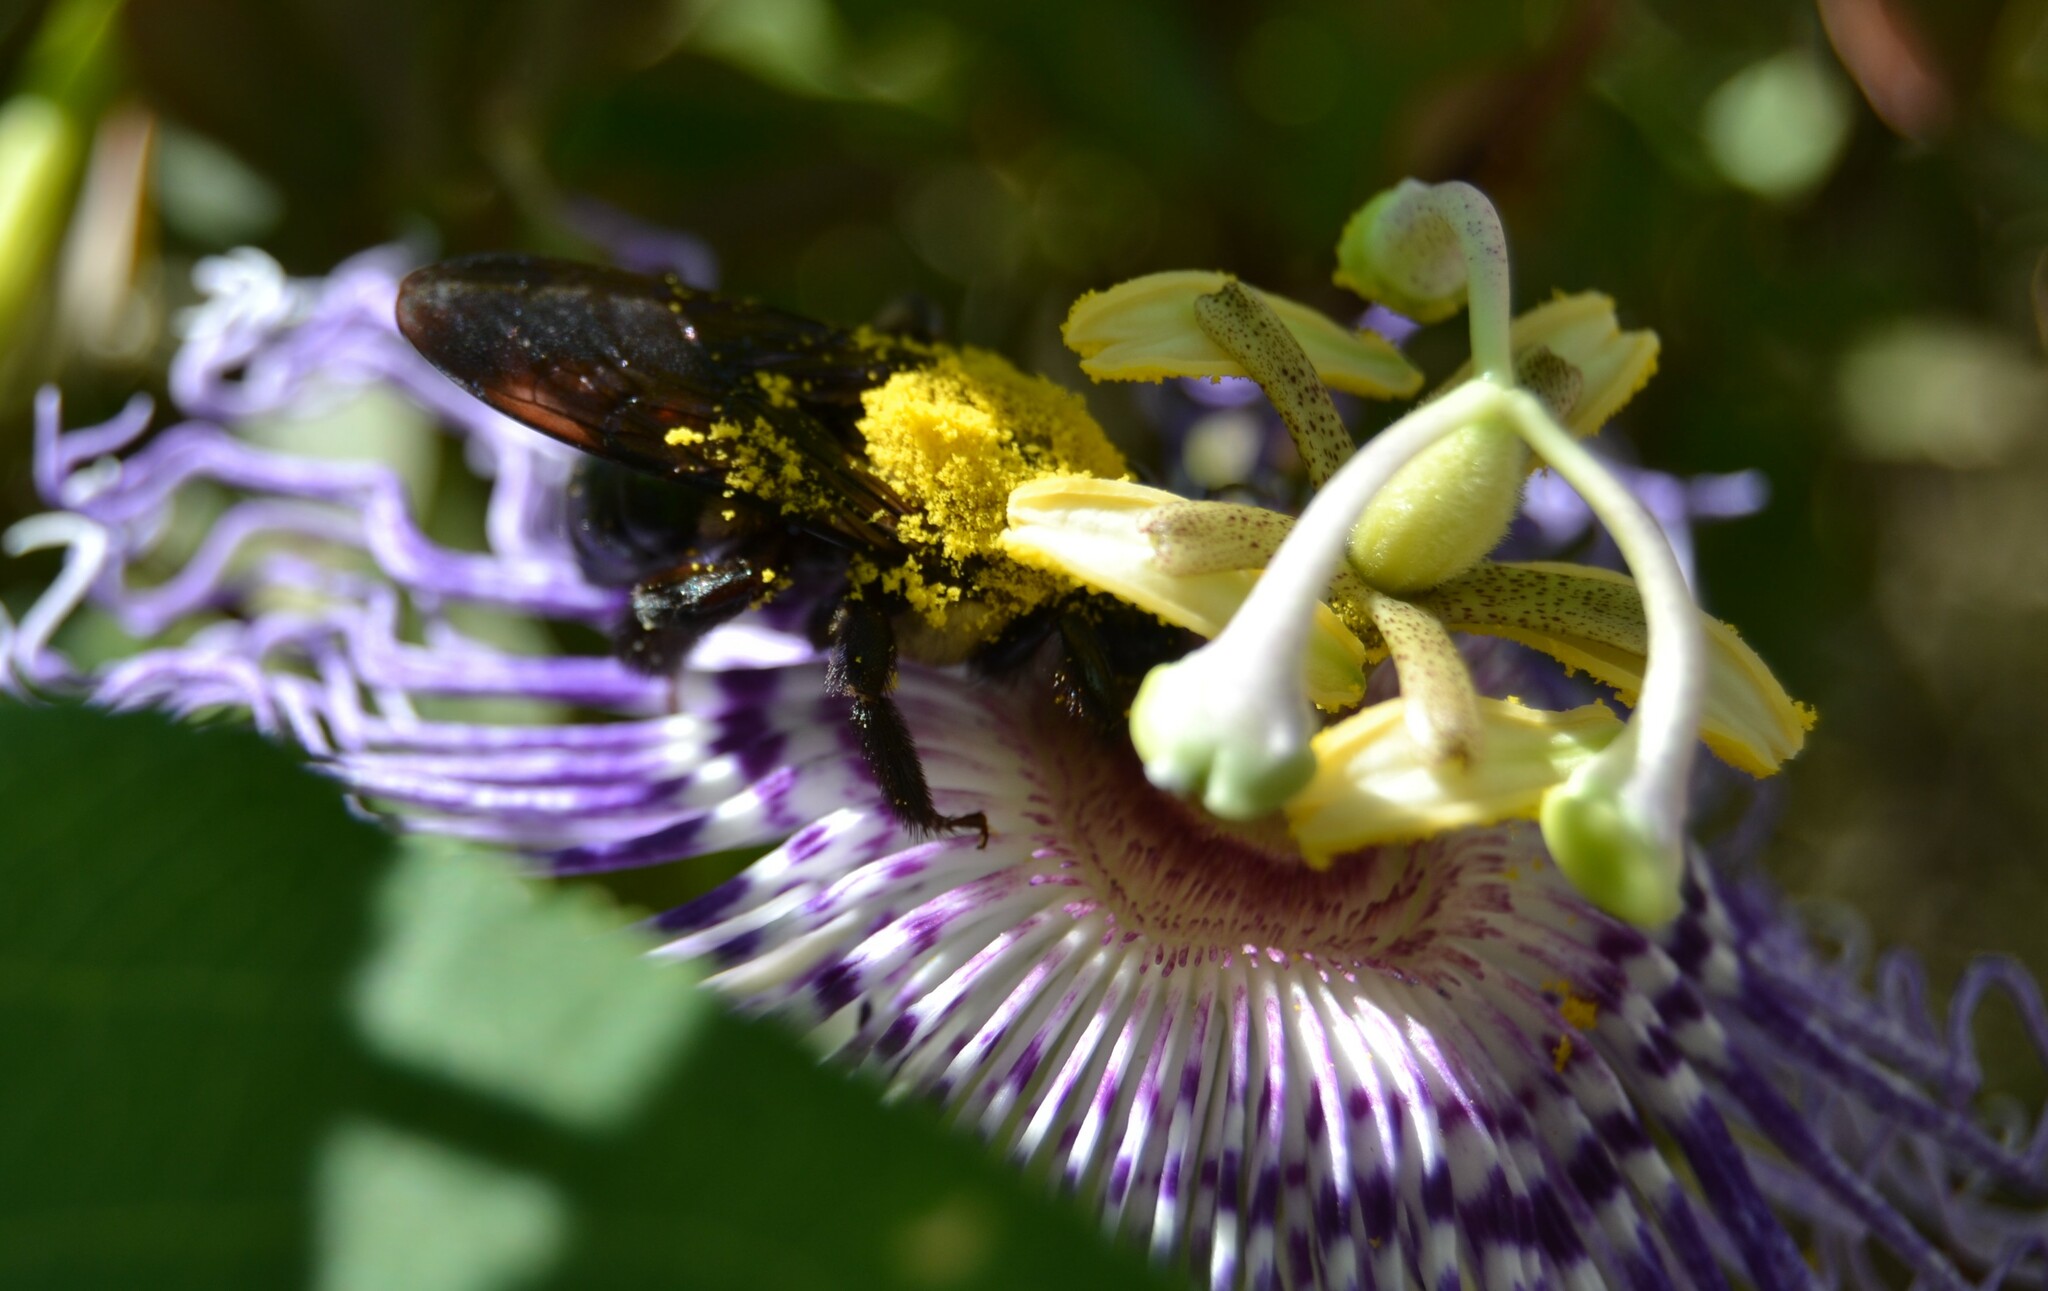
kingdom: Animalia
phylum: Arthropoda
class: Insecta
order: Hymenoptera
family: Apidae
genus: Xylocopa
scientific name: Xylocopa virginica
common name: Carpenter bee
